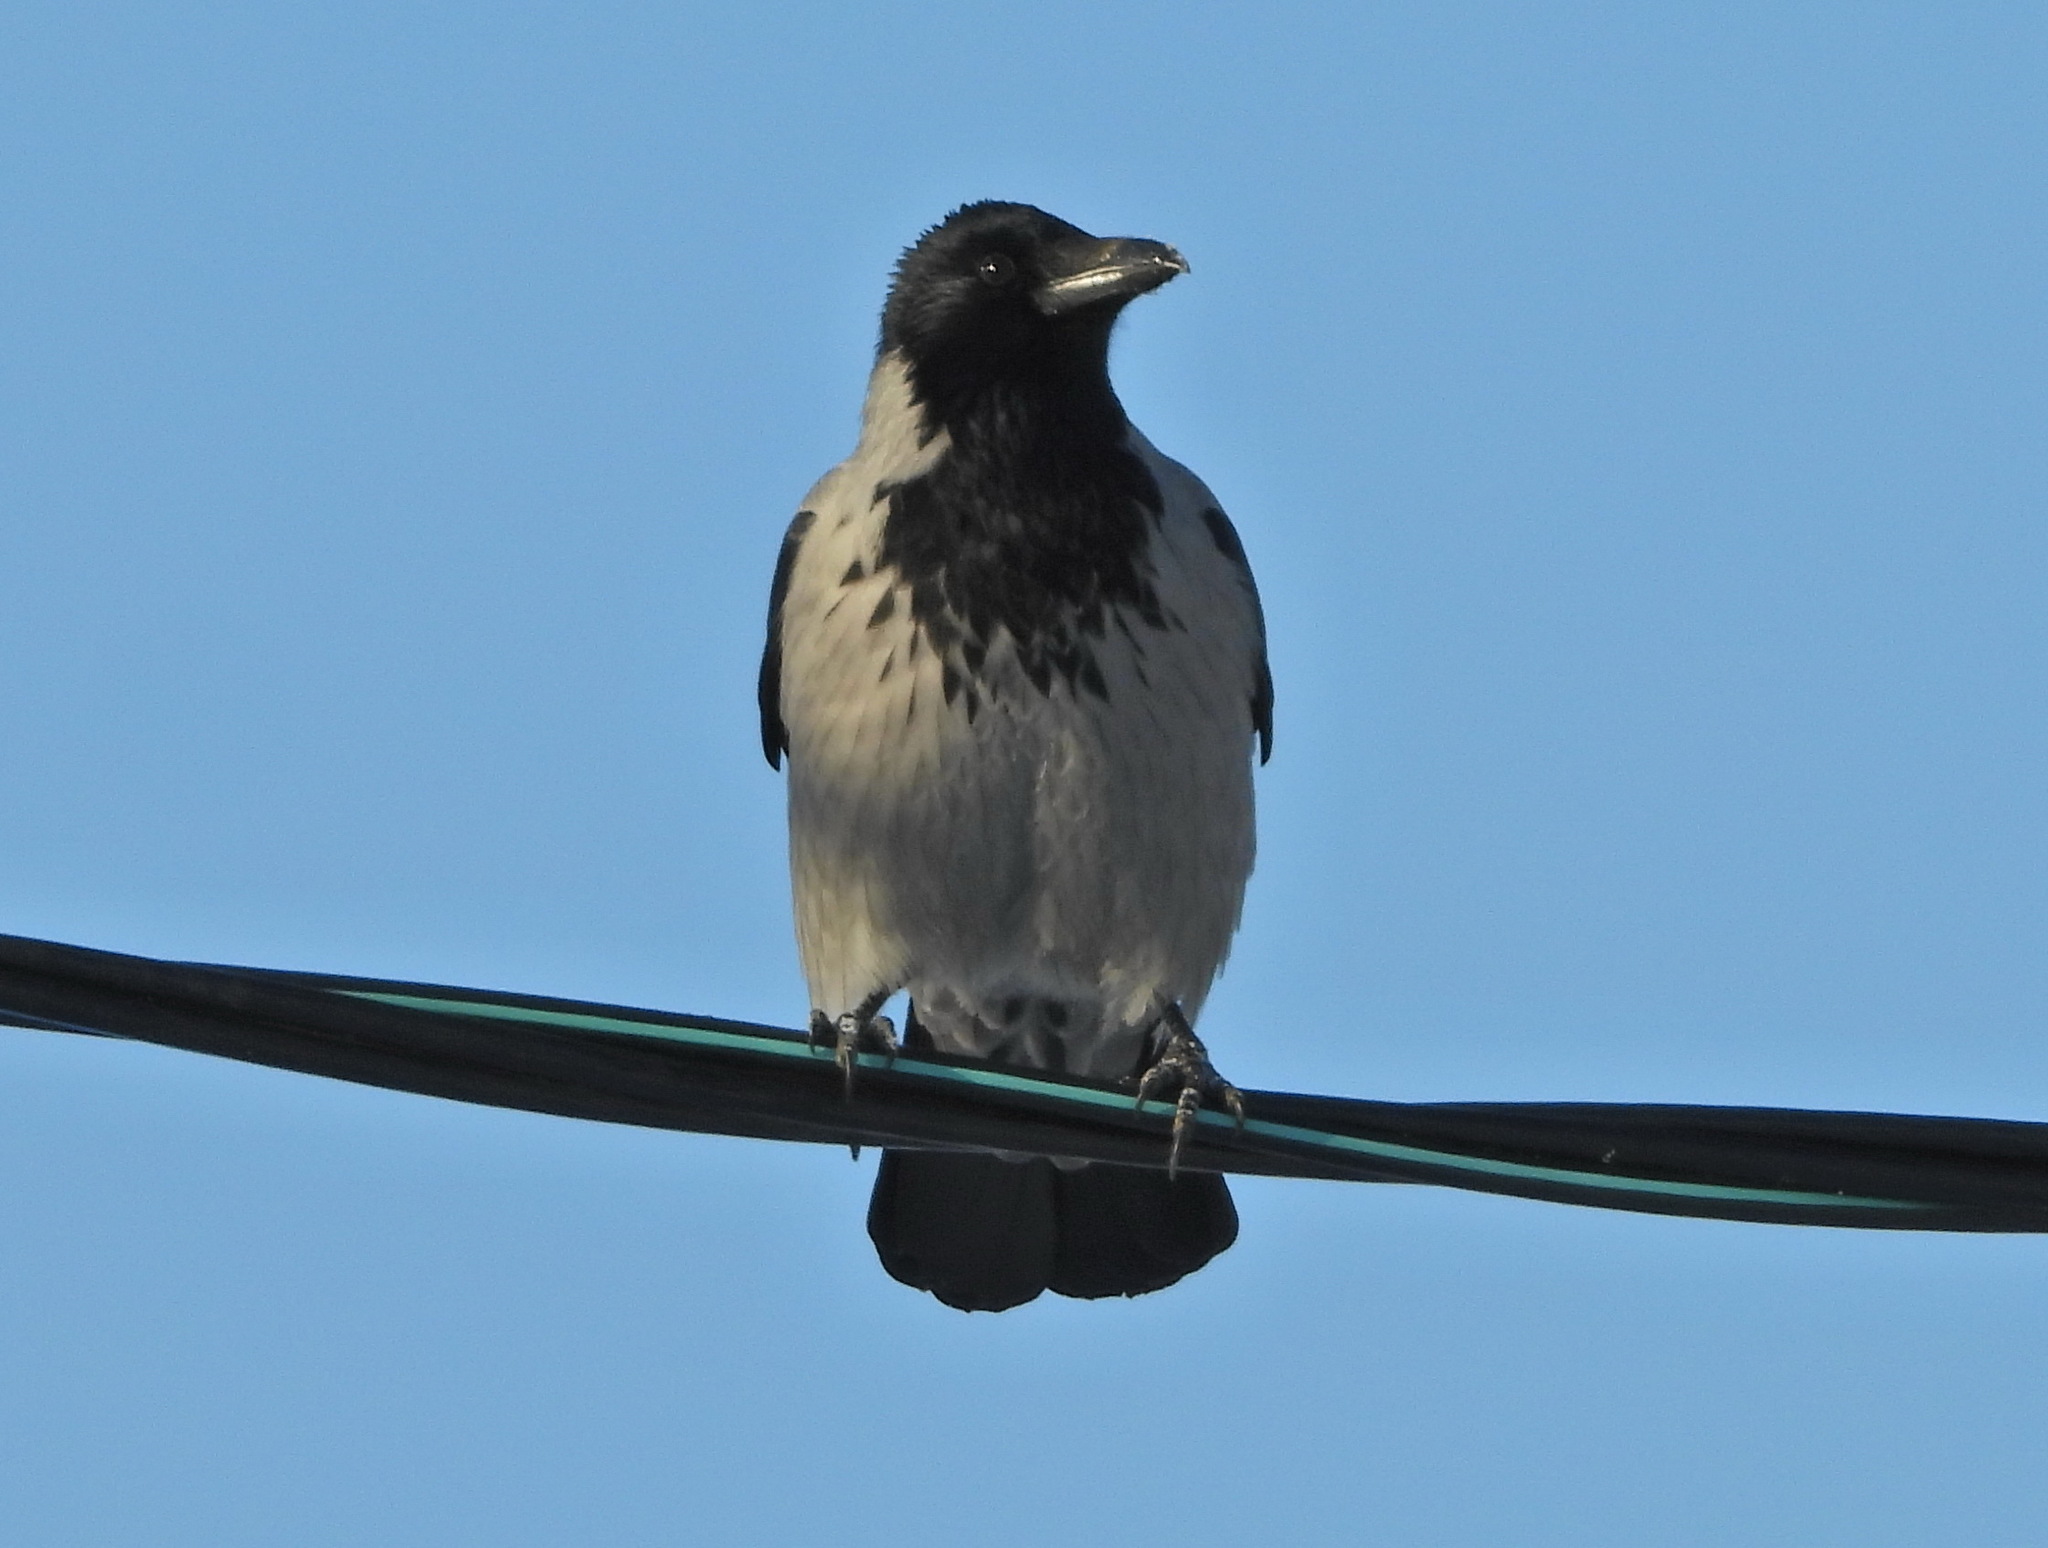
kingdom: Animalia
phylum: Chordata
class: Aves
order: Passeriformes
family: Corvidae
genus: Corvus
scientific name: Corvus cornix
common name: Hooded crow
